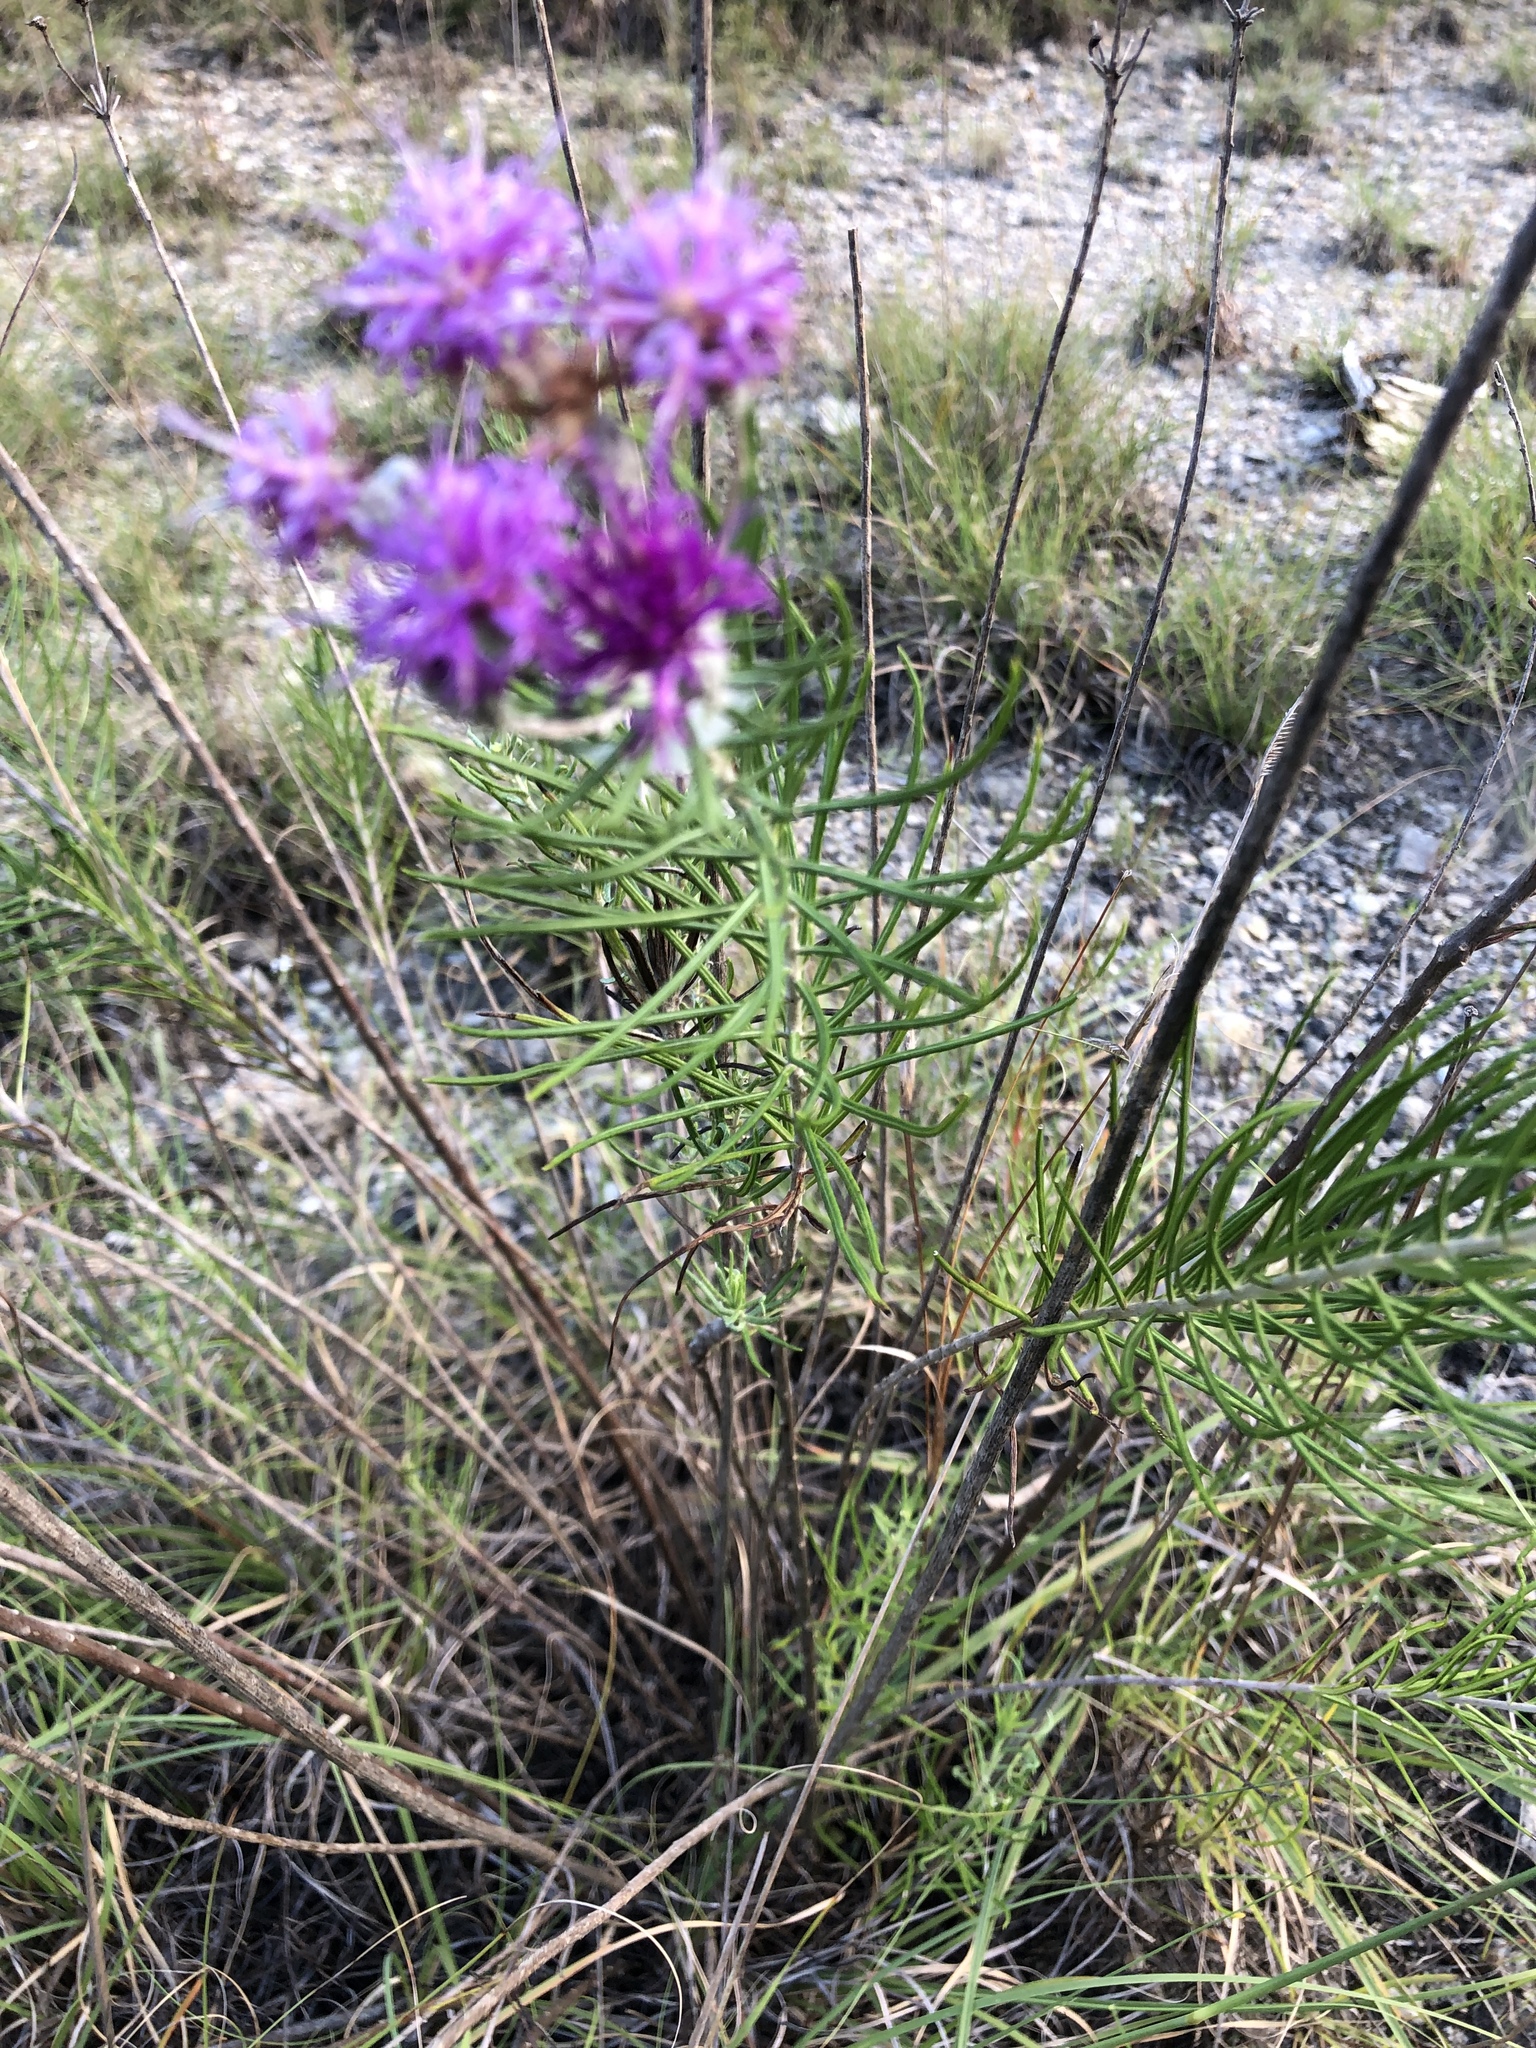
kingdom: Plantae
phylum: Tracheophyta
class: Magnoliopsida
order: Asterales
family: Asteraceae
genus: Vernonia
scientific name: Vernonia lindheimeri
